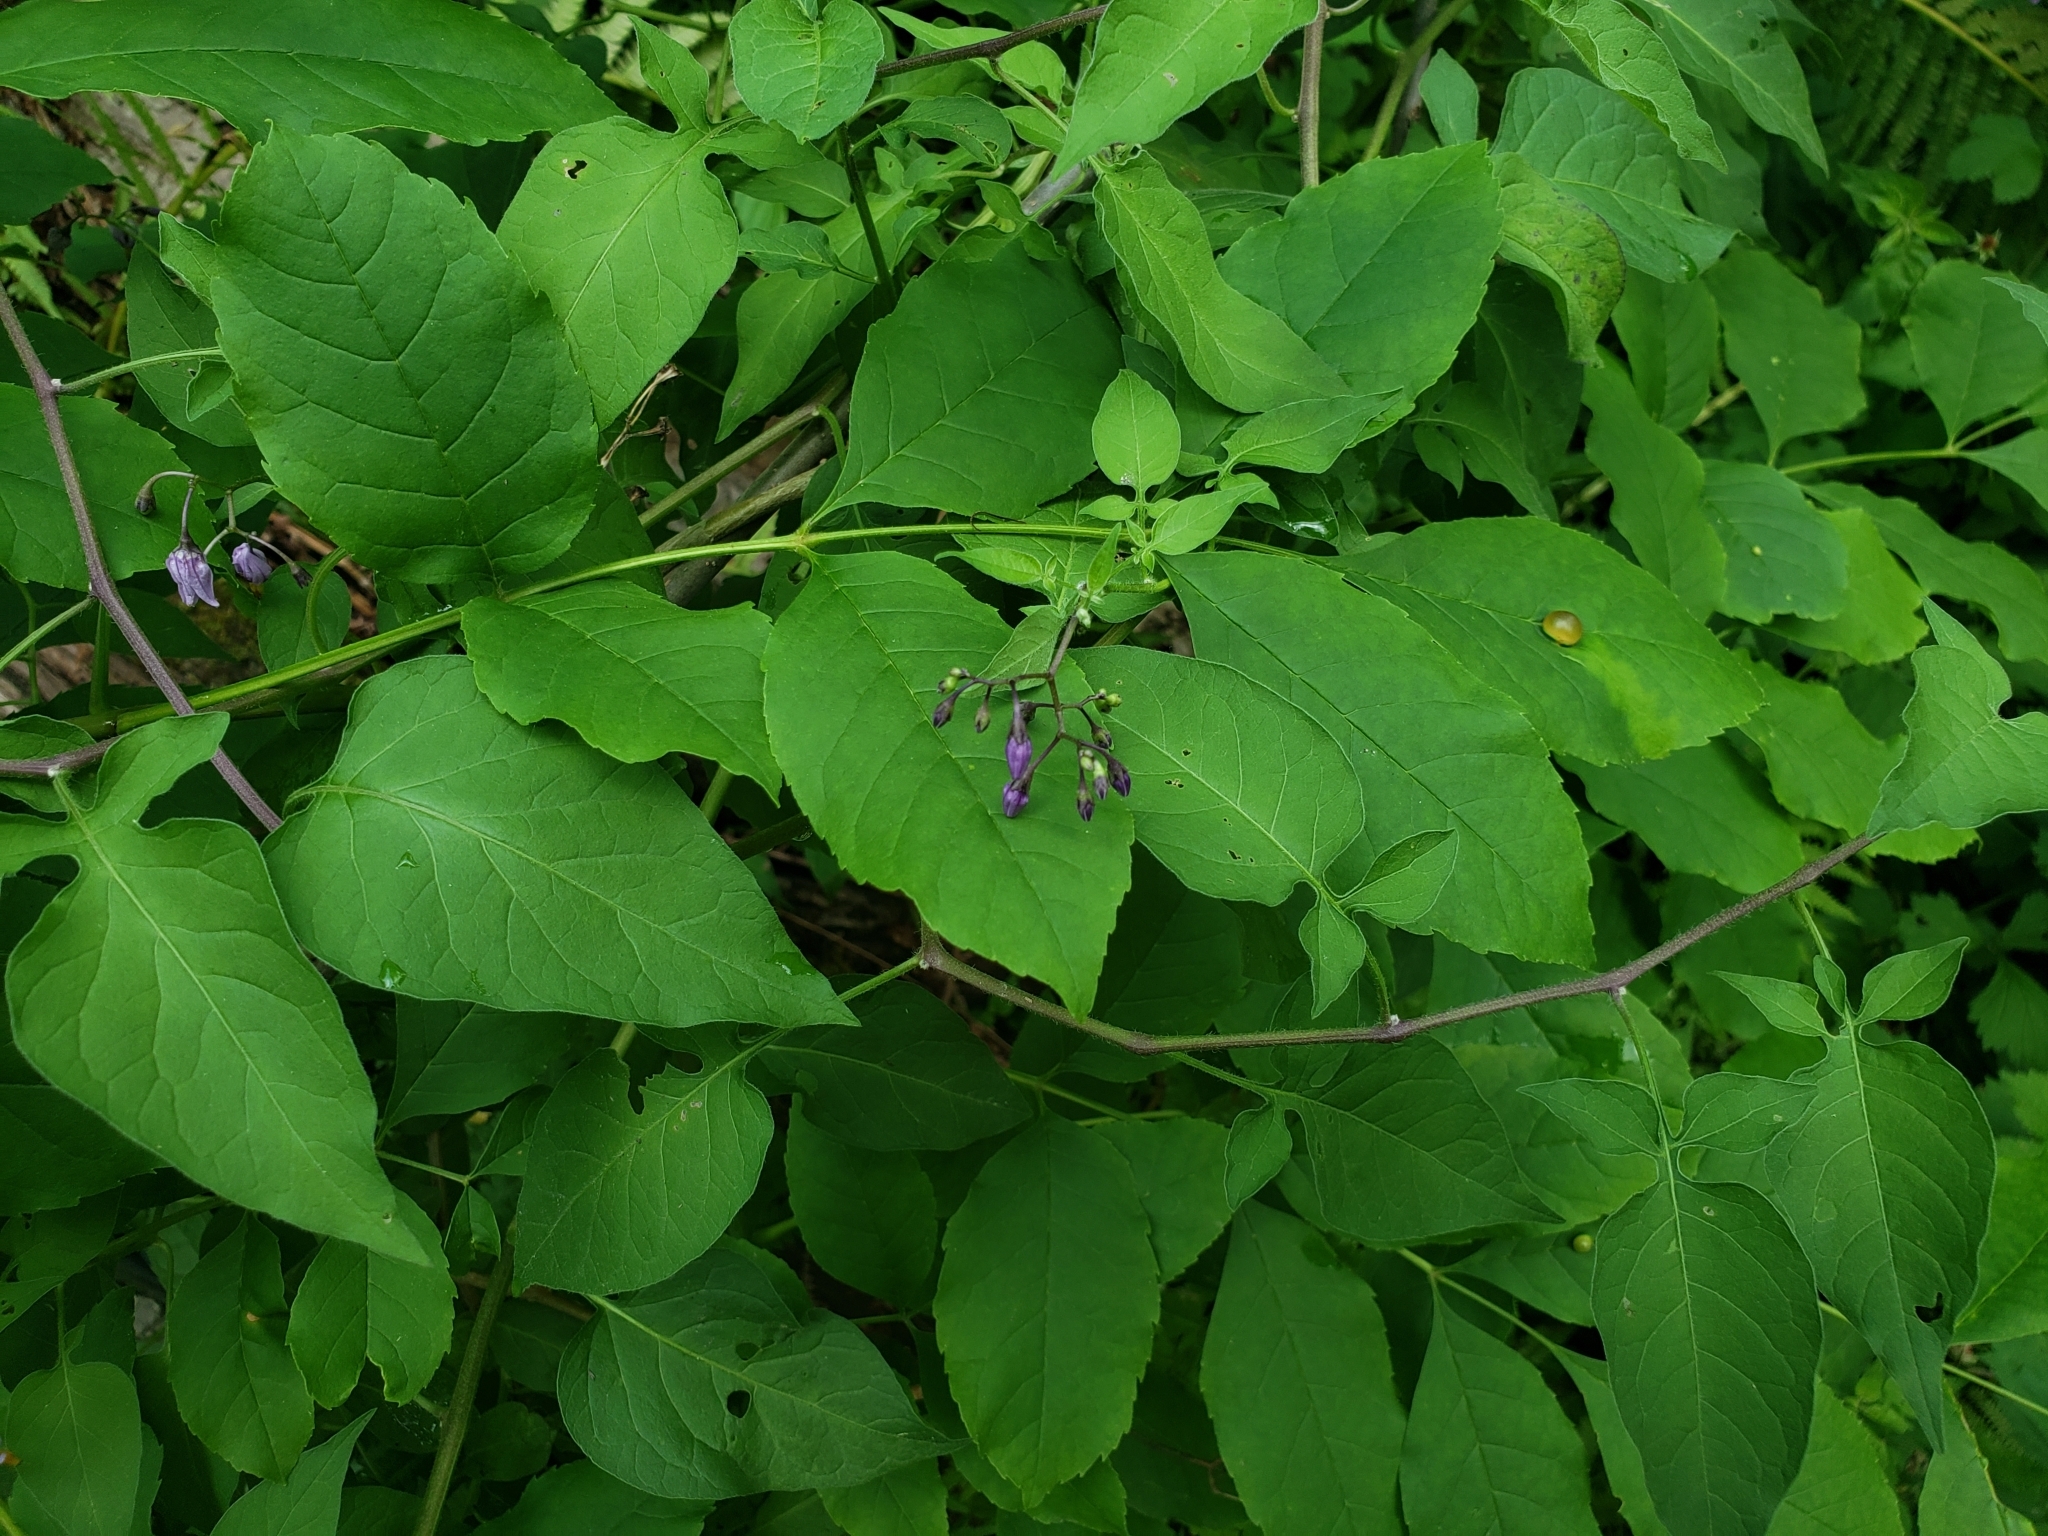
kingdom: Plantae
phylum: Tracheophyta
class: Magnoliopsida
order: Solanales
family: Solanaceae
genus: Solanum
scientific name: Solanum dulcamara
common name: Climbing nightshade
